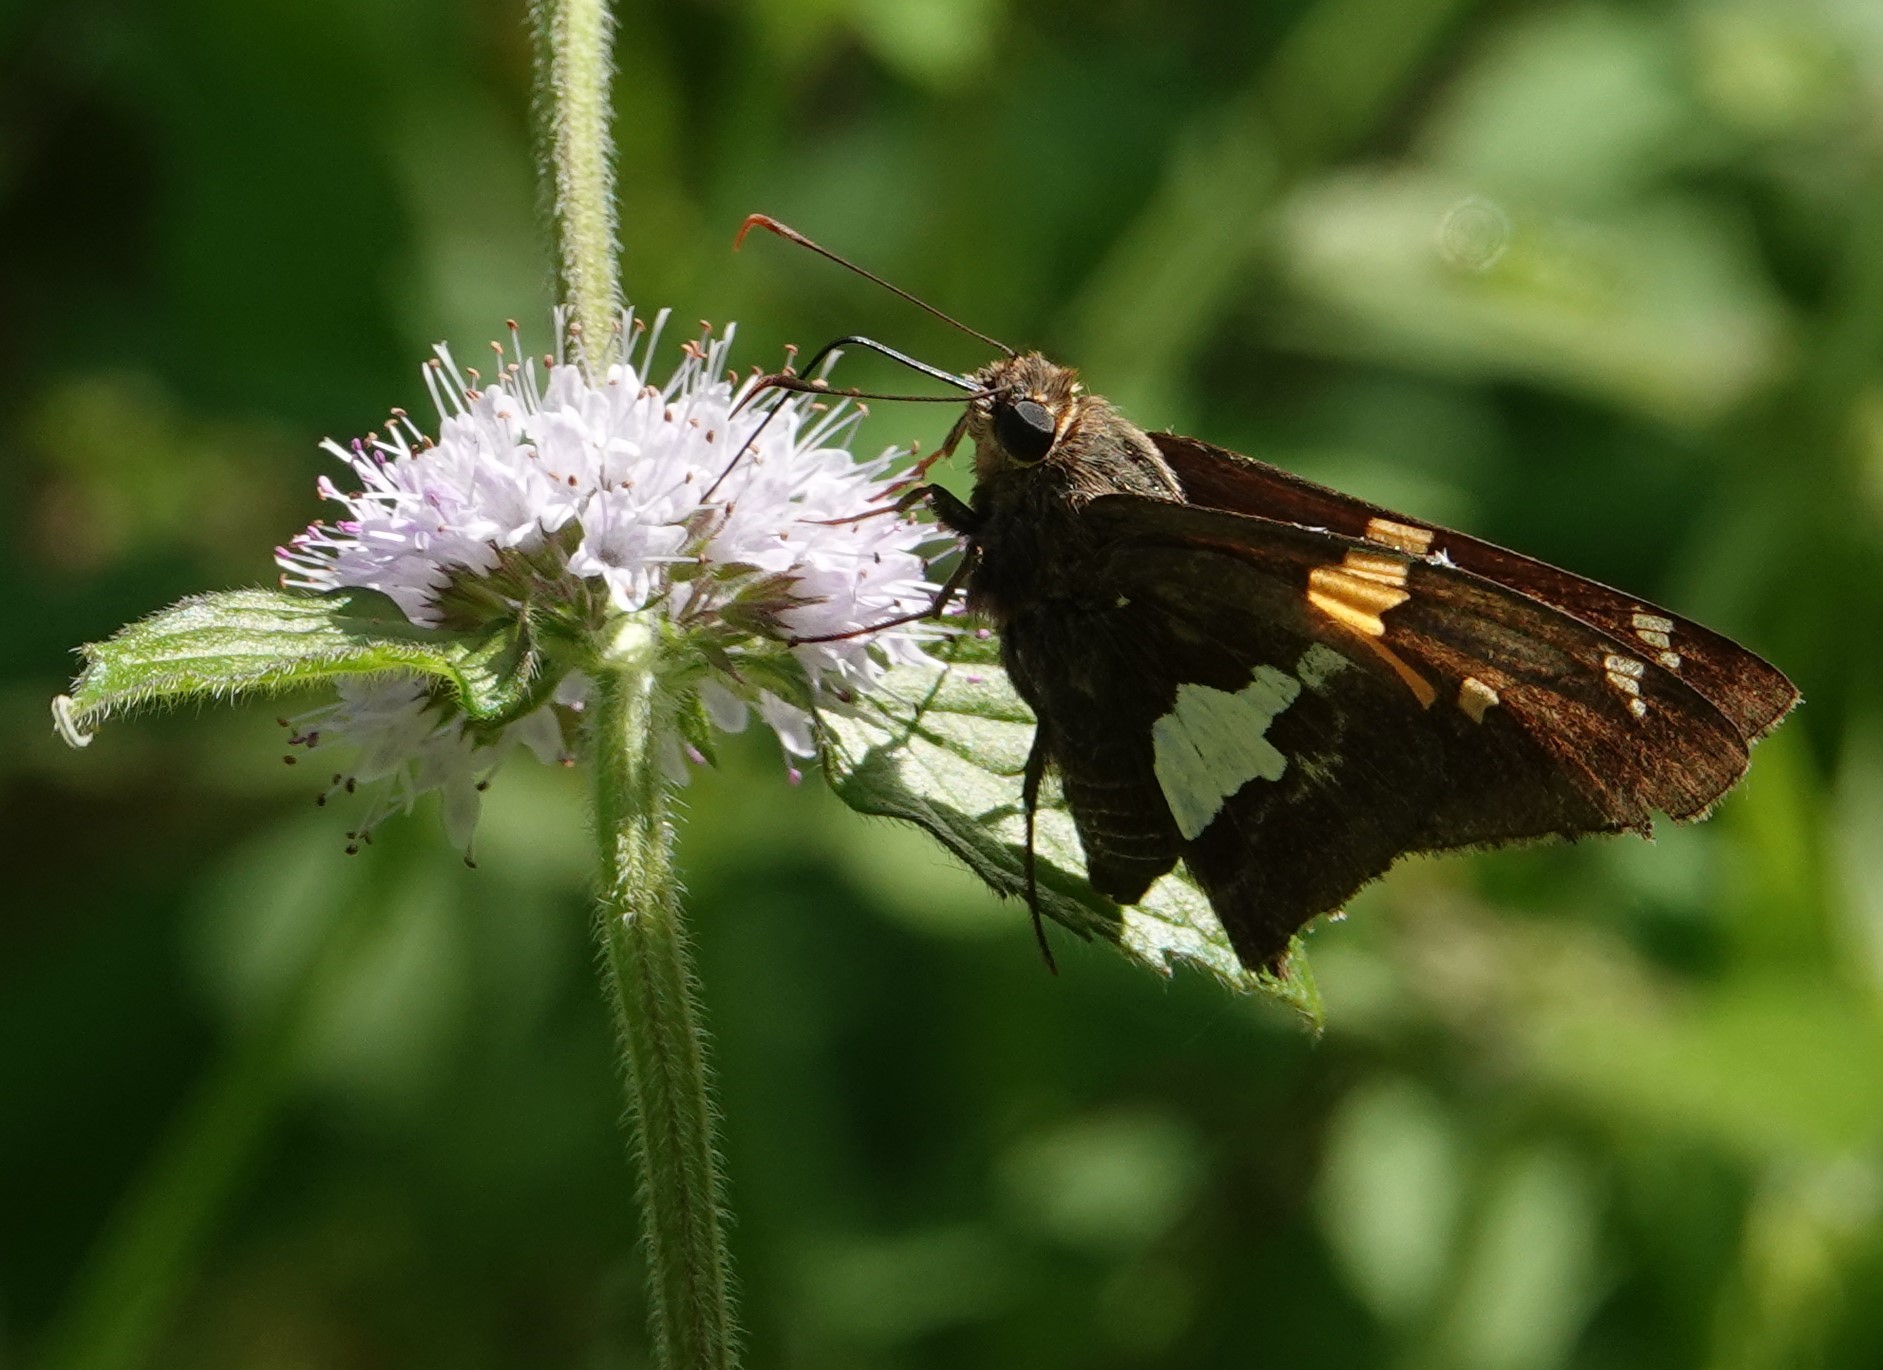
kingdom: Animalia
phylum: Arthropoda
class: Insecta
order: Lepidoptera
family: Hesperiidae
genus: Epargyreus
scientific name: Epargyreus clarus
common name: Silver-spotted skipper
